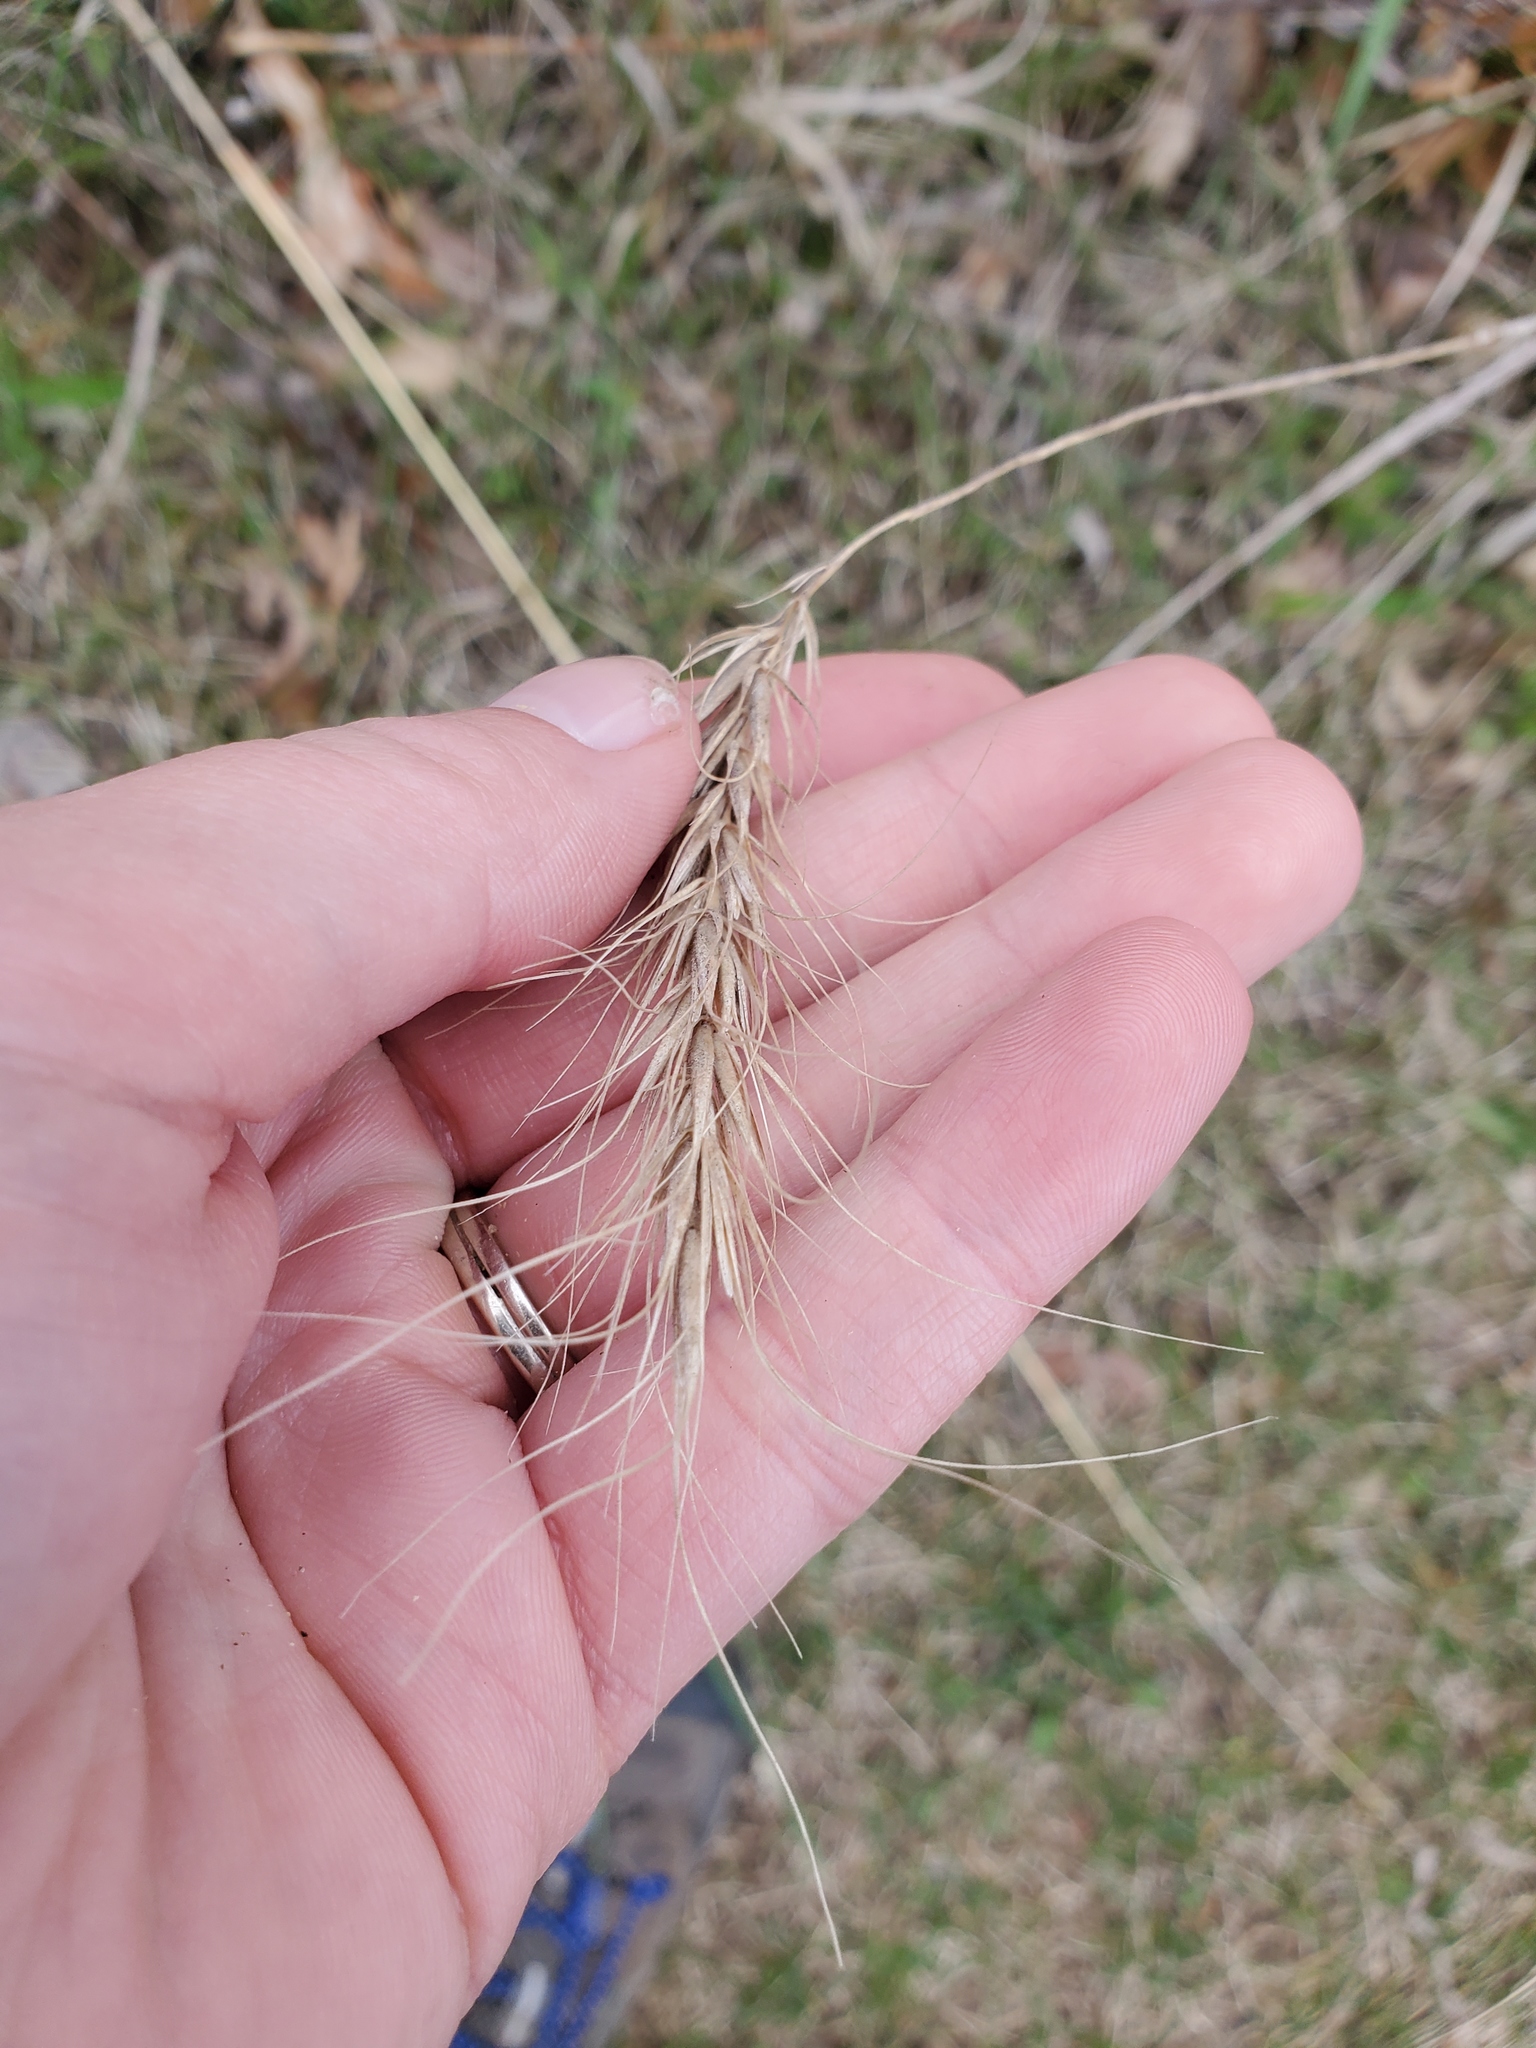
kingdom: Plantae
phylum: Tracheophyta
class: Liliopsida
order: Poales
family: Poaceae
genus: Elymus
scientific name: Elymus canadensis
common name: Canada wild rye
